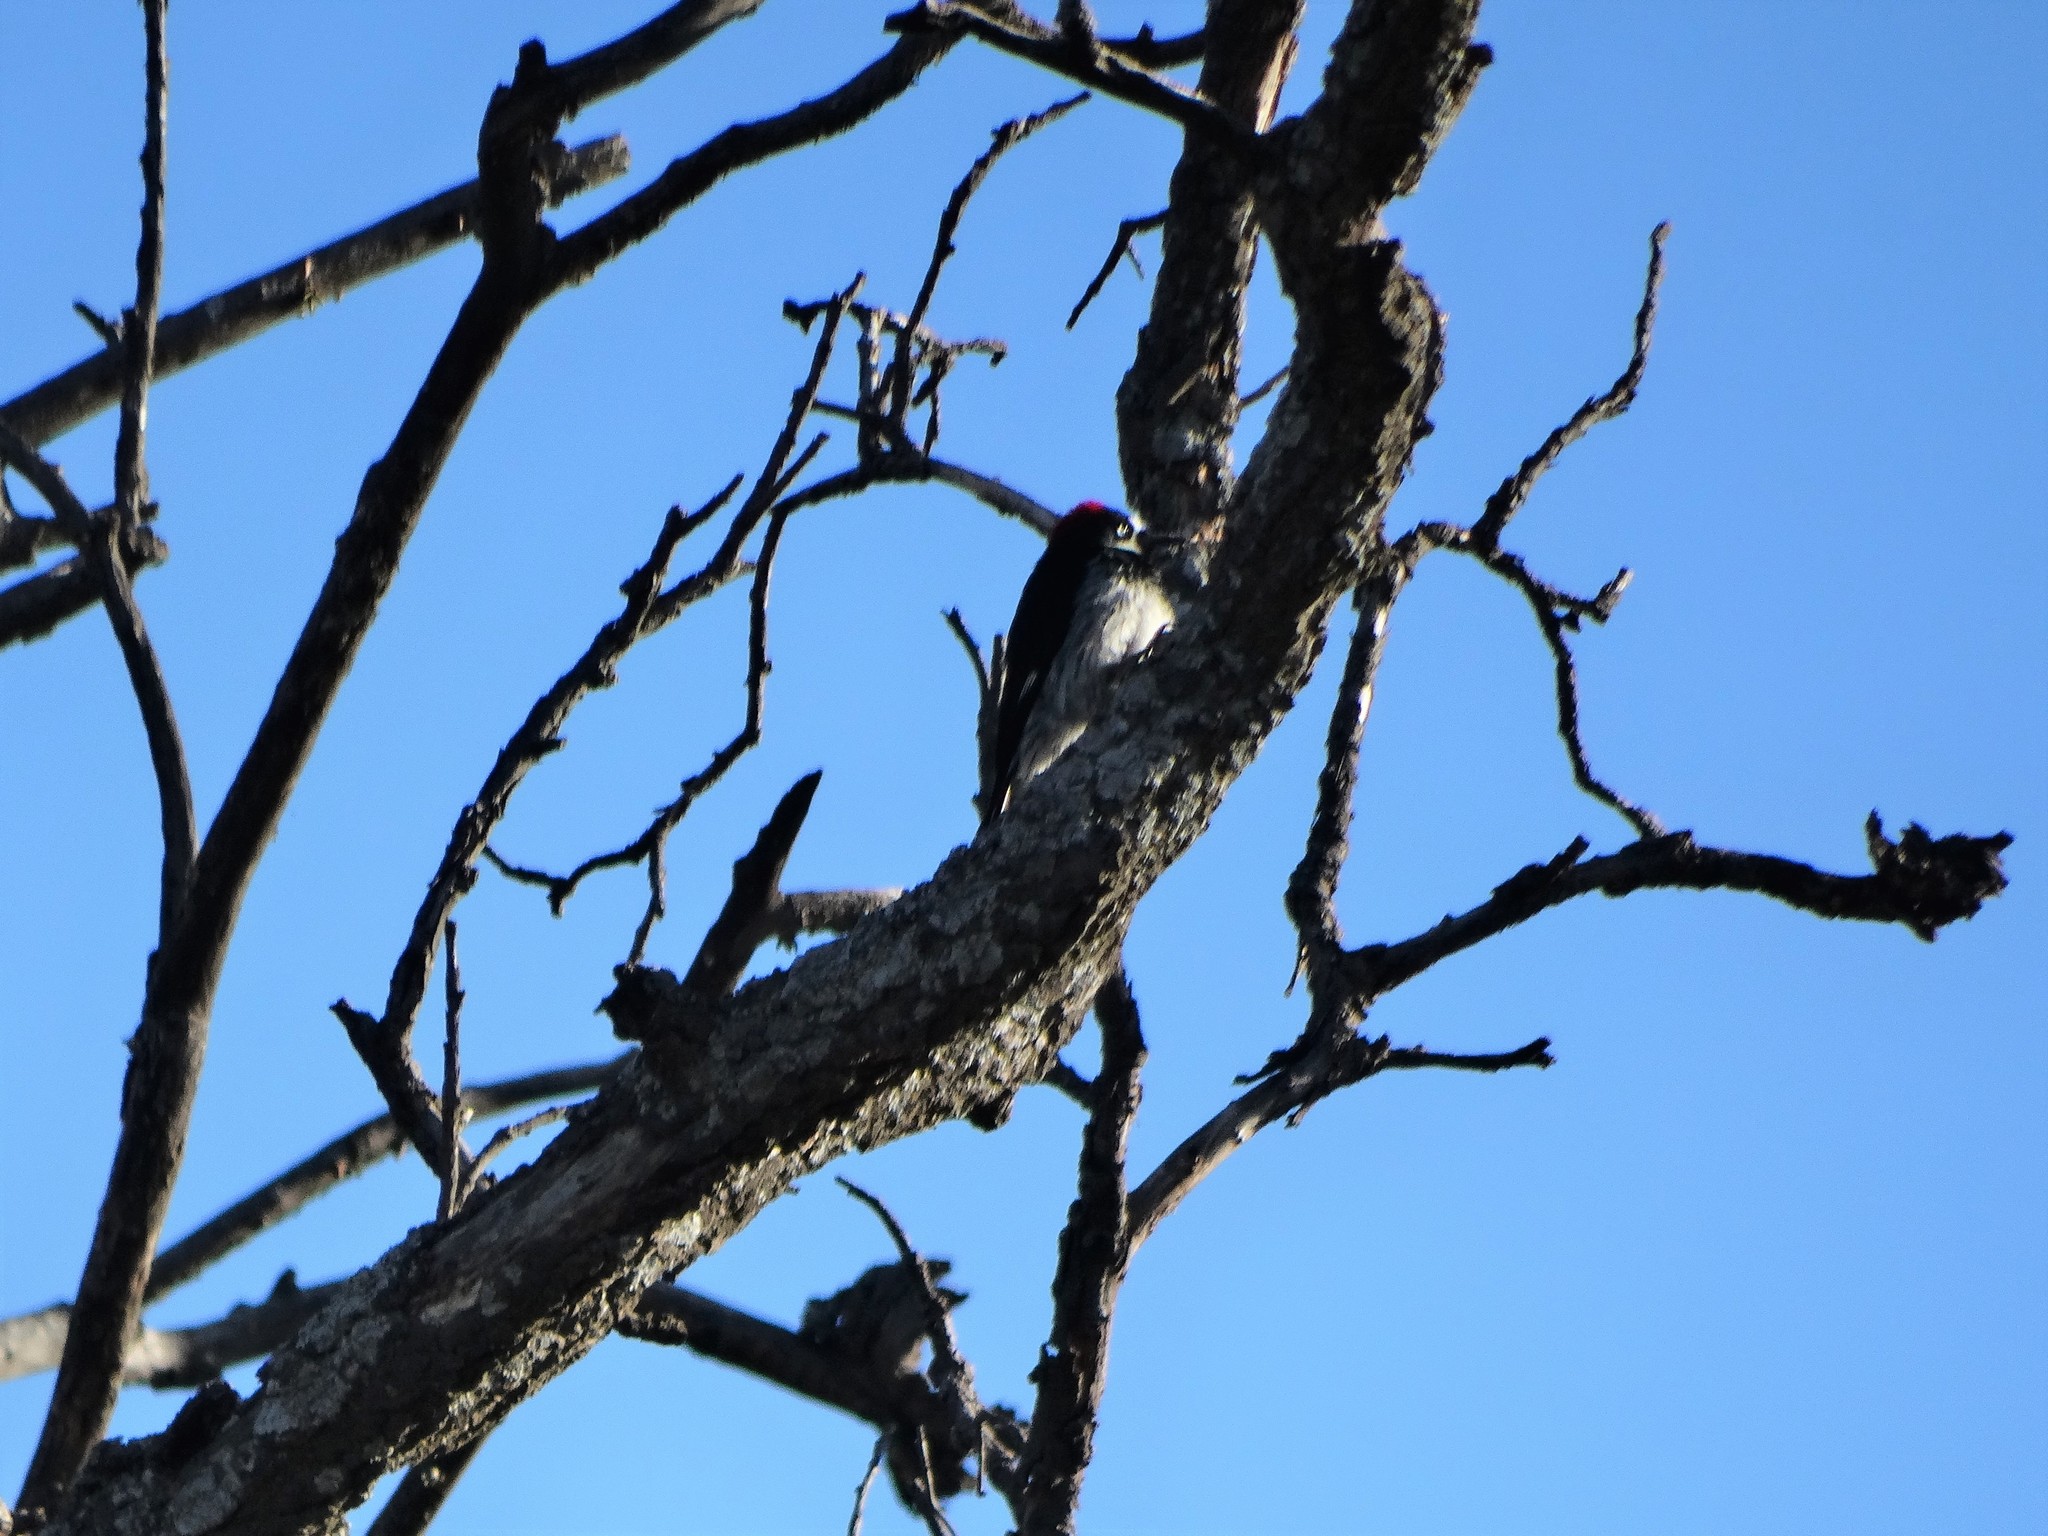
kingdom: Animalia
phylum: Chordata
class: Aves
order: Piciformes
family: Picidae
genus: Melanerpes
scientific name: Melanerpes formicivorus
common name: Acorn woodpecker
